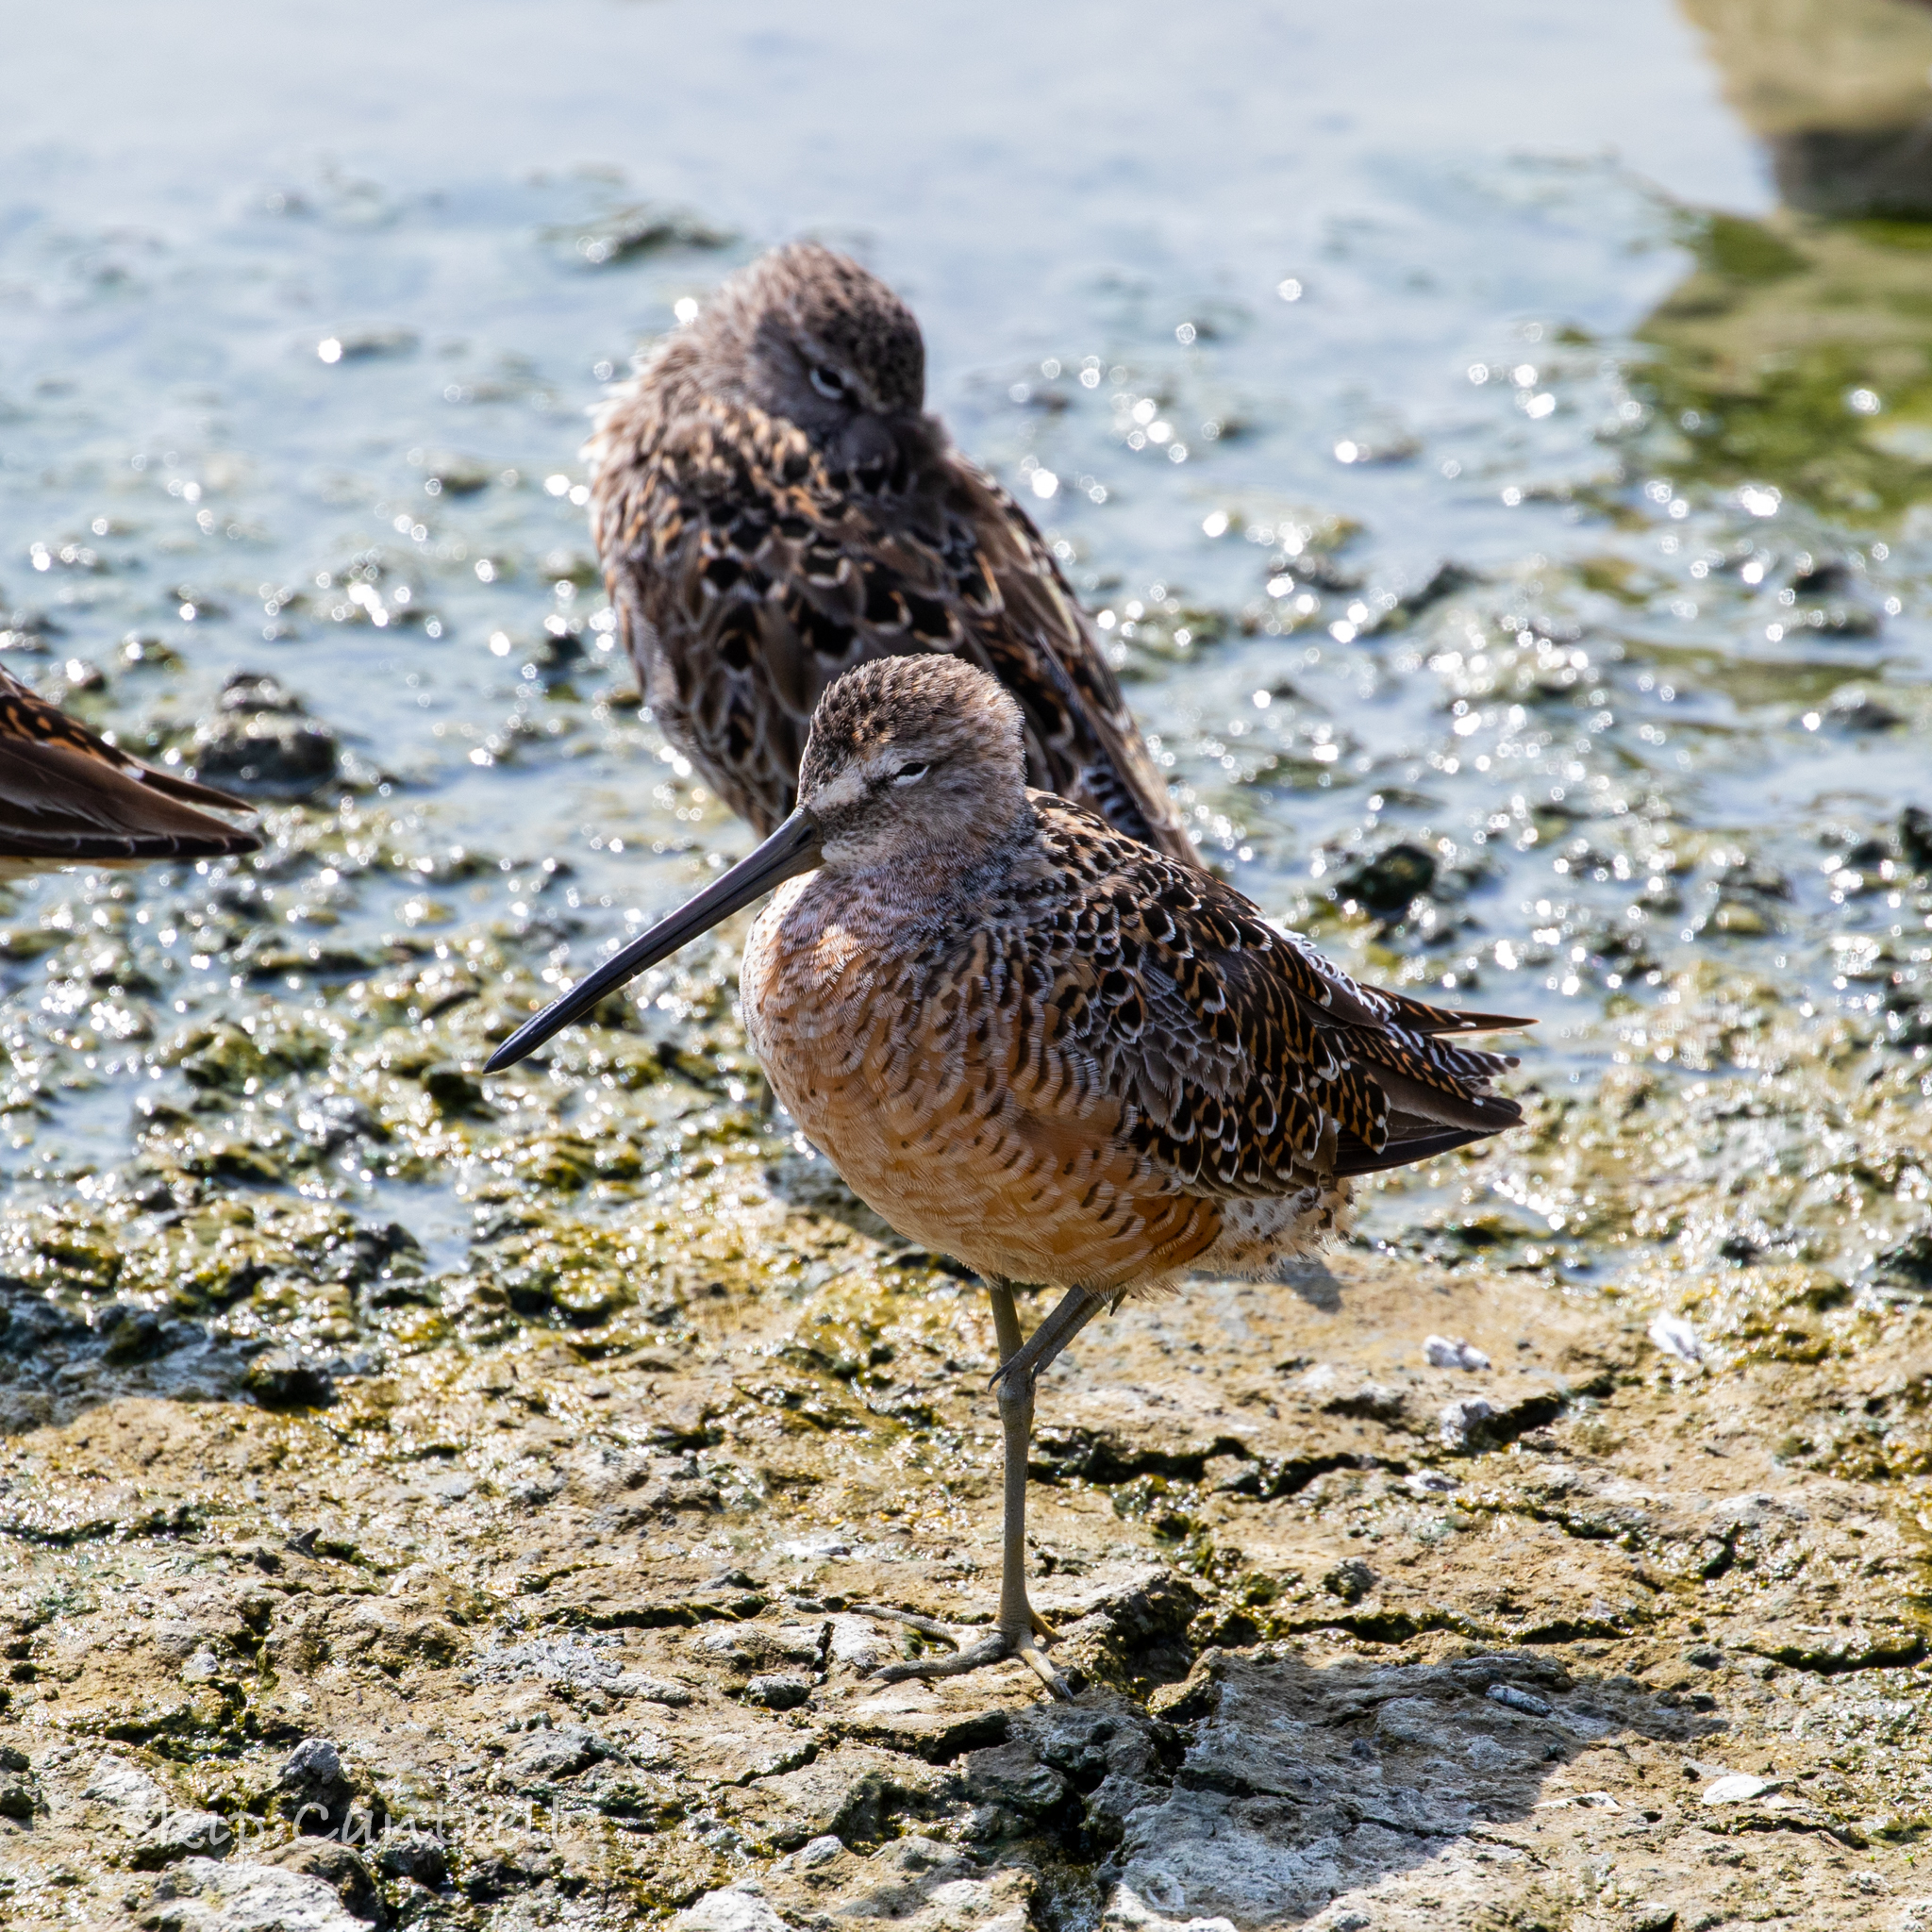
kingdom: Animalia
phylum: Chordata
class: Aves
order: Charadriiformes
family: Scolopacidae
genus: Limnodromus
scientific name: Limnodromus scolopaceus
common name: Long-billed dowitcher
